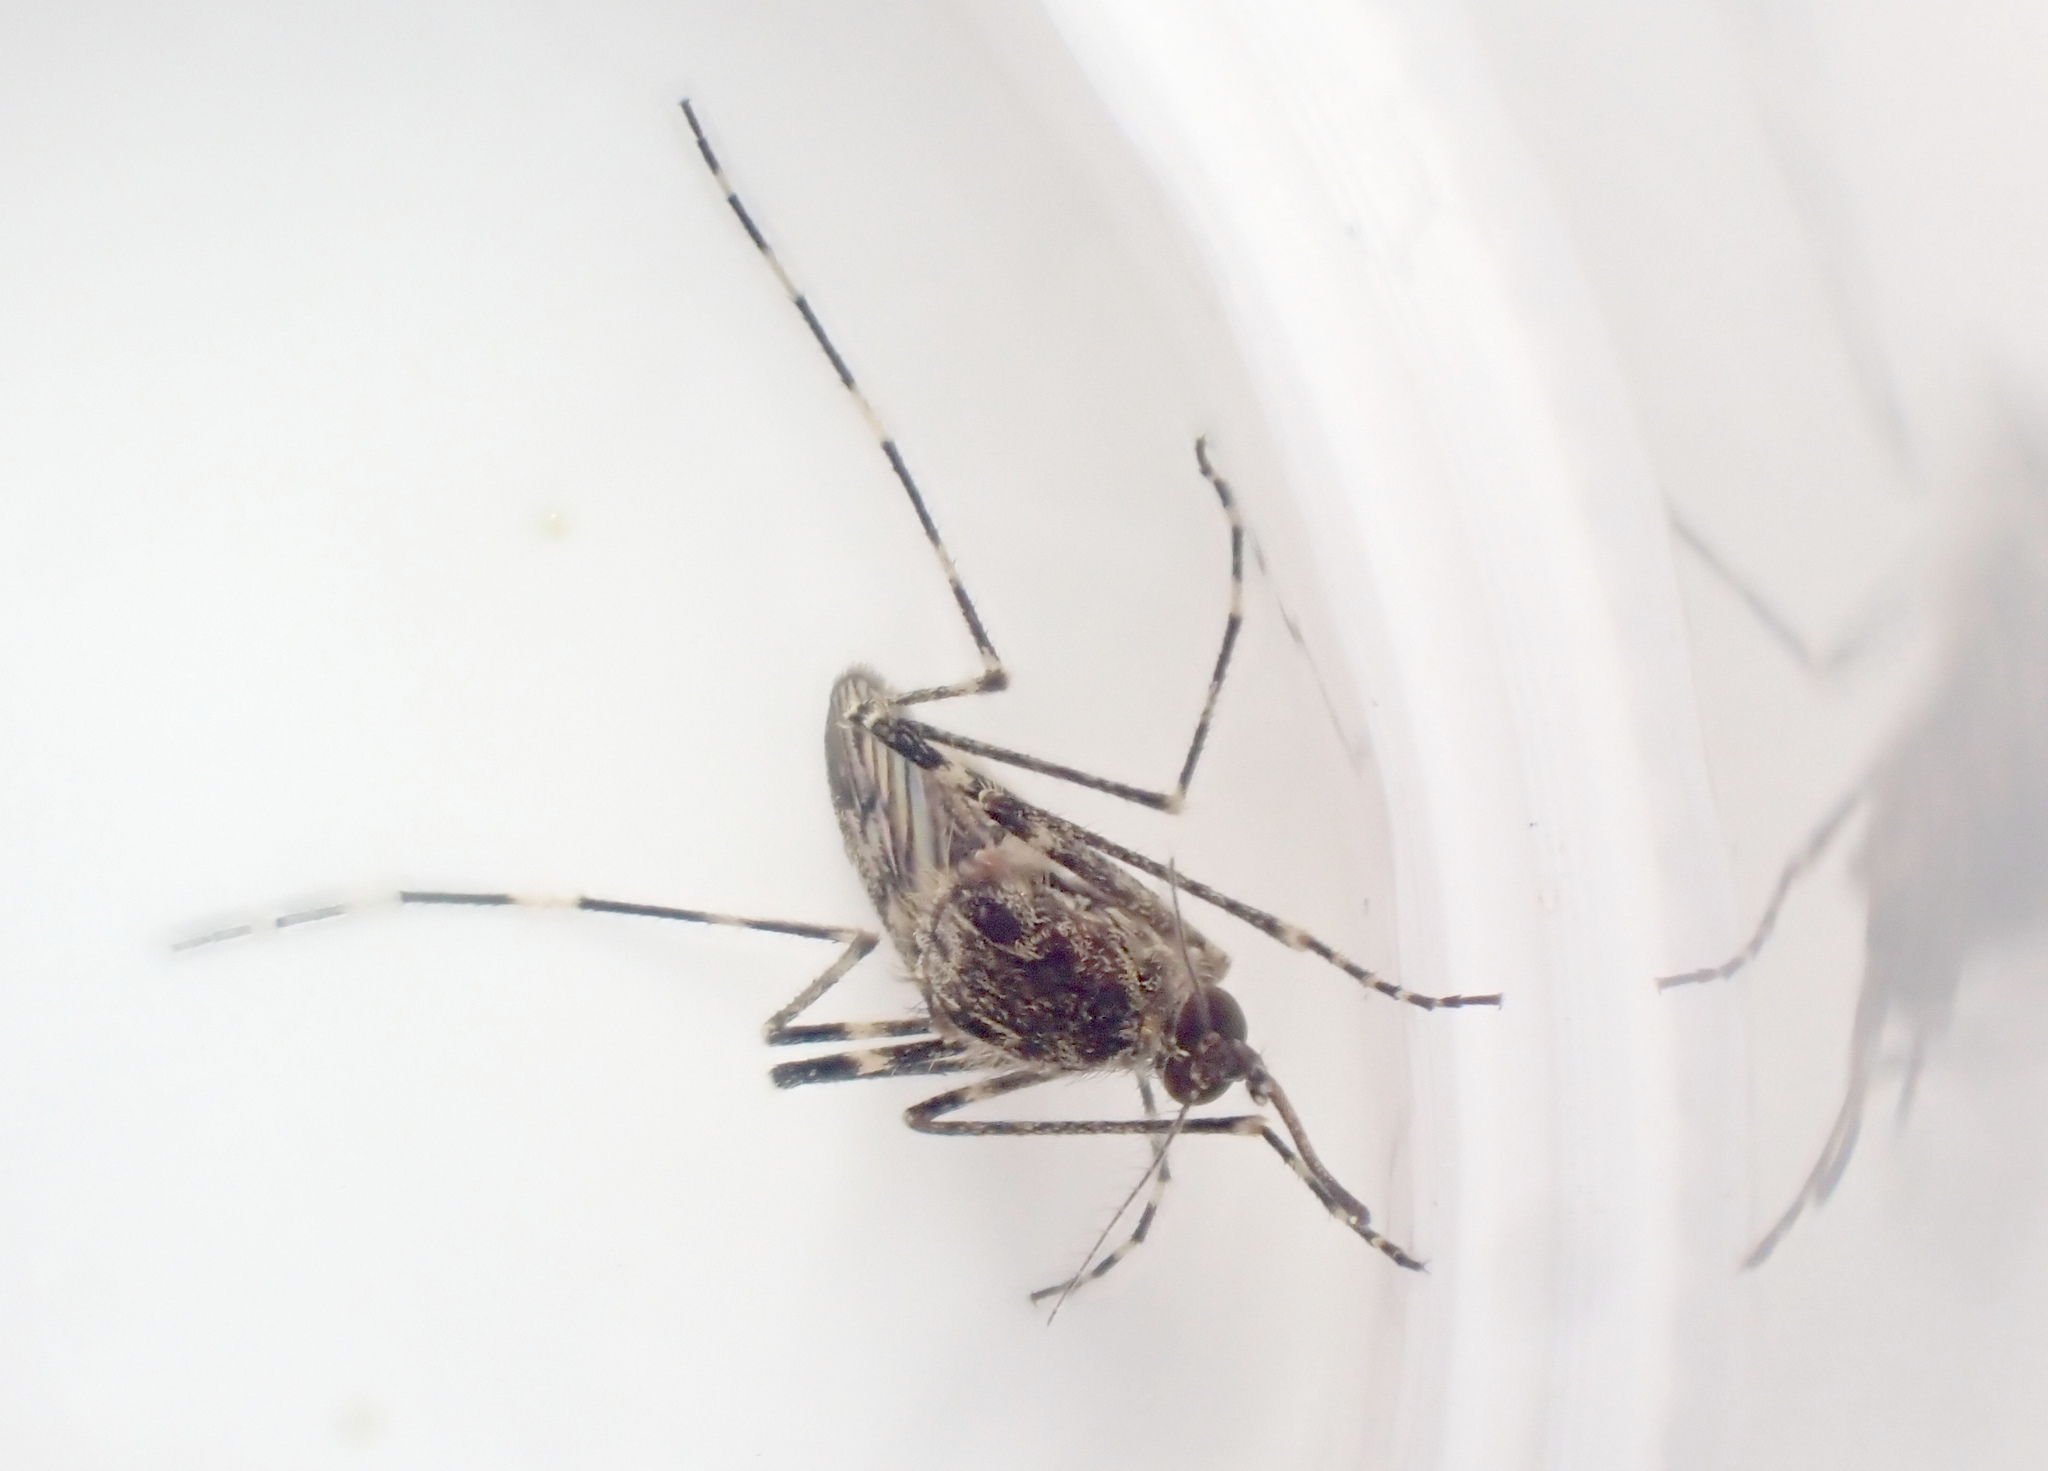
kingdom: Animalia
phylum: Arthropoda
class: Insecta
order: Diptera
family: Culicidae
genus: Culiseta
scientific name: Culiseta annulata
